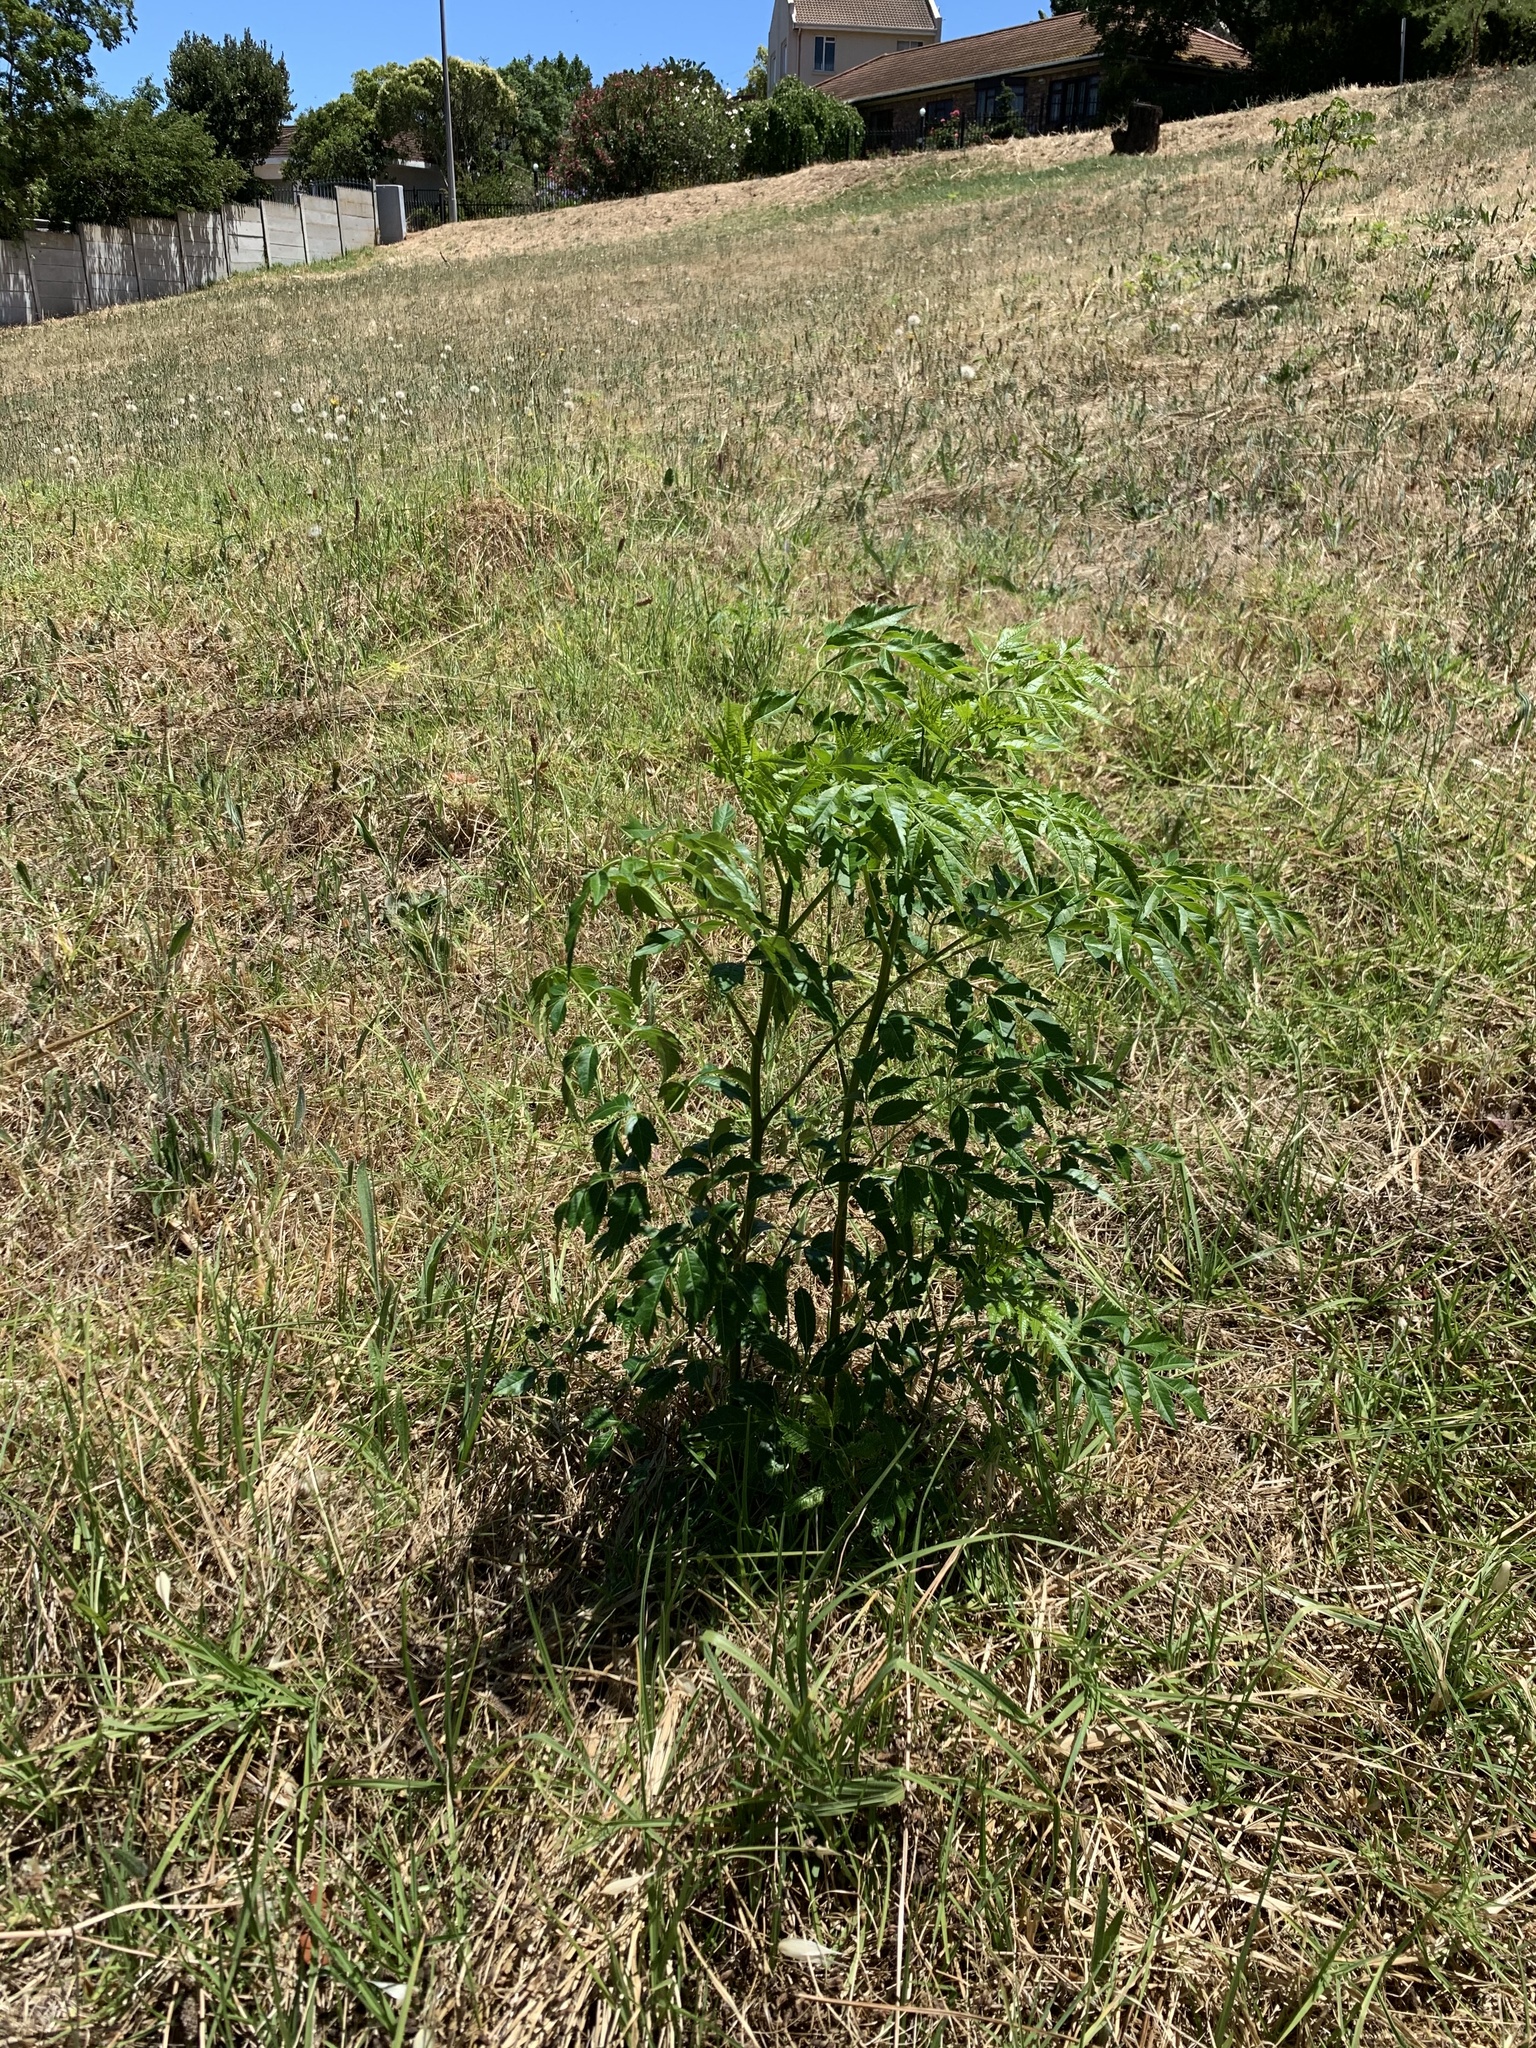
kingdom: Plantae
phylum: Tracheophyta
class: Magnoliopsida
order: Sapindales
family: Meliaceae
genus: Melia
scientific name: Melia azedarach
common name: Chinaberrytree
